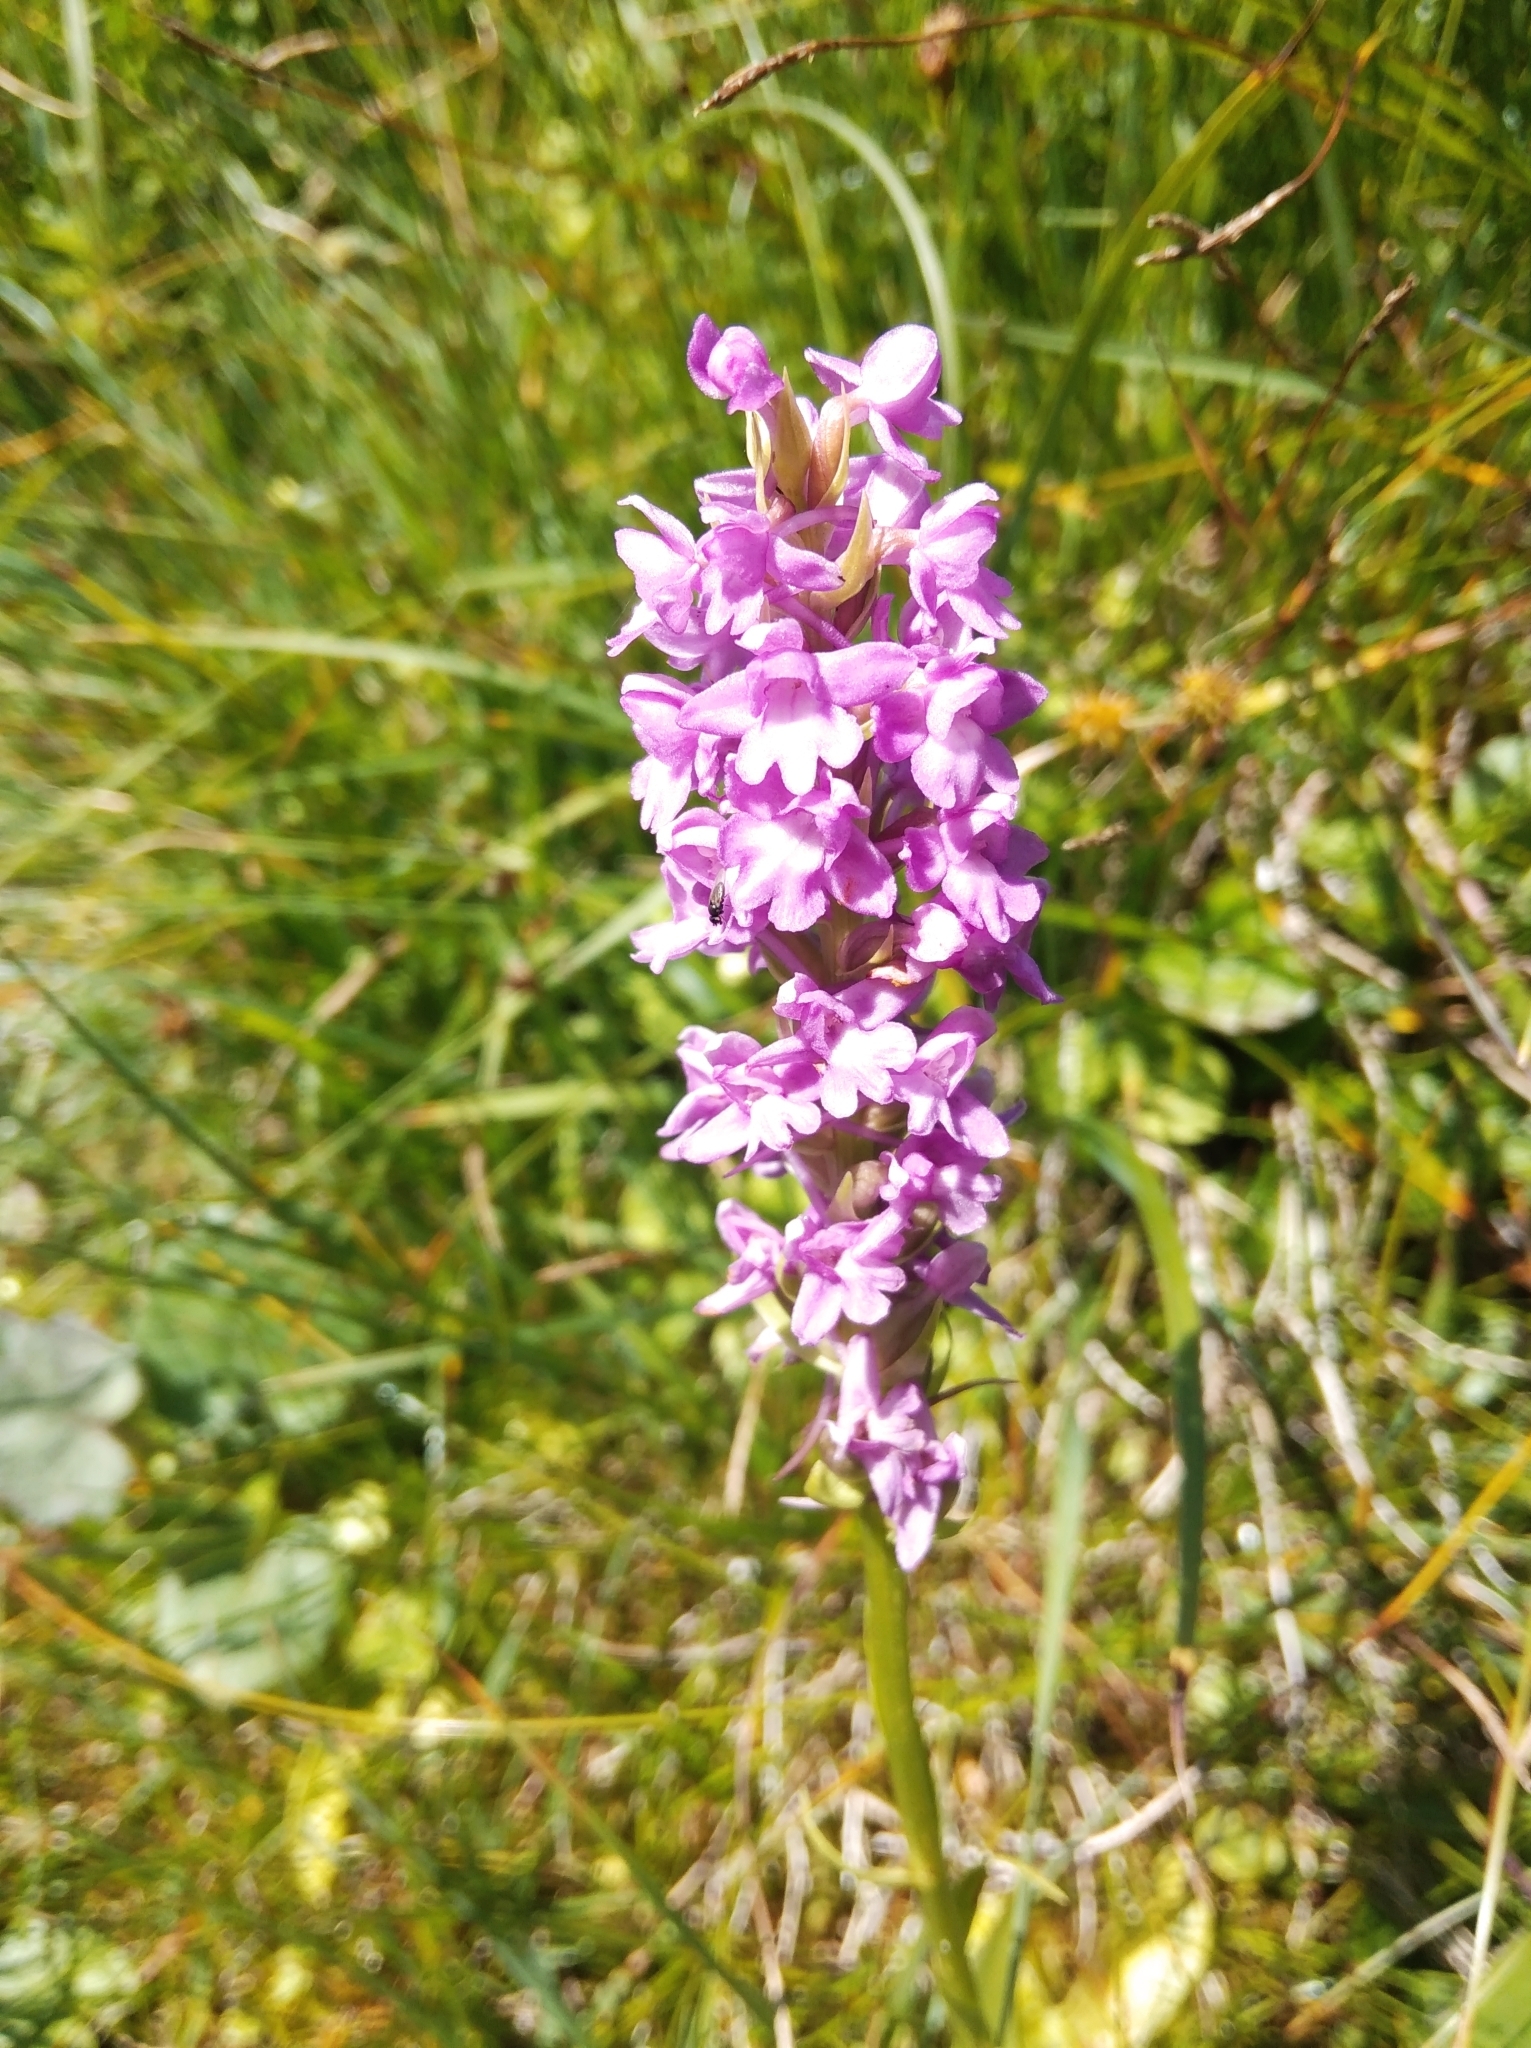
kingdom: Plantae
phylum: Tracheophyta
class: Liliopsida
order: Asparagales
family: Orchidaceae
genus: Gymnadenia
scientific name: Gymnadenia conopsea
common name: Fragrant orchid
